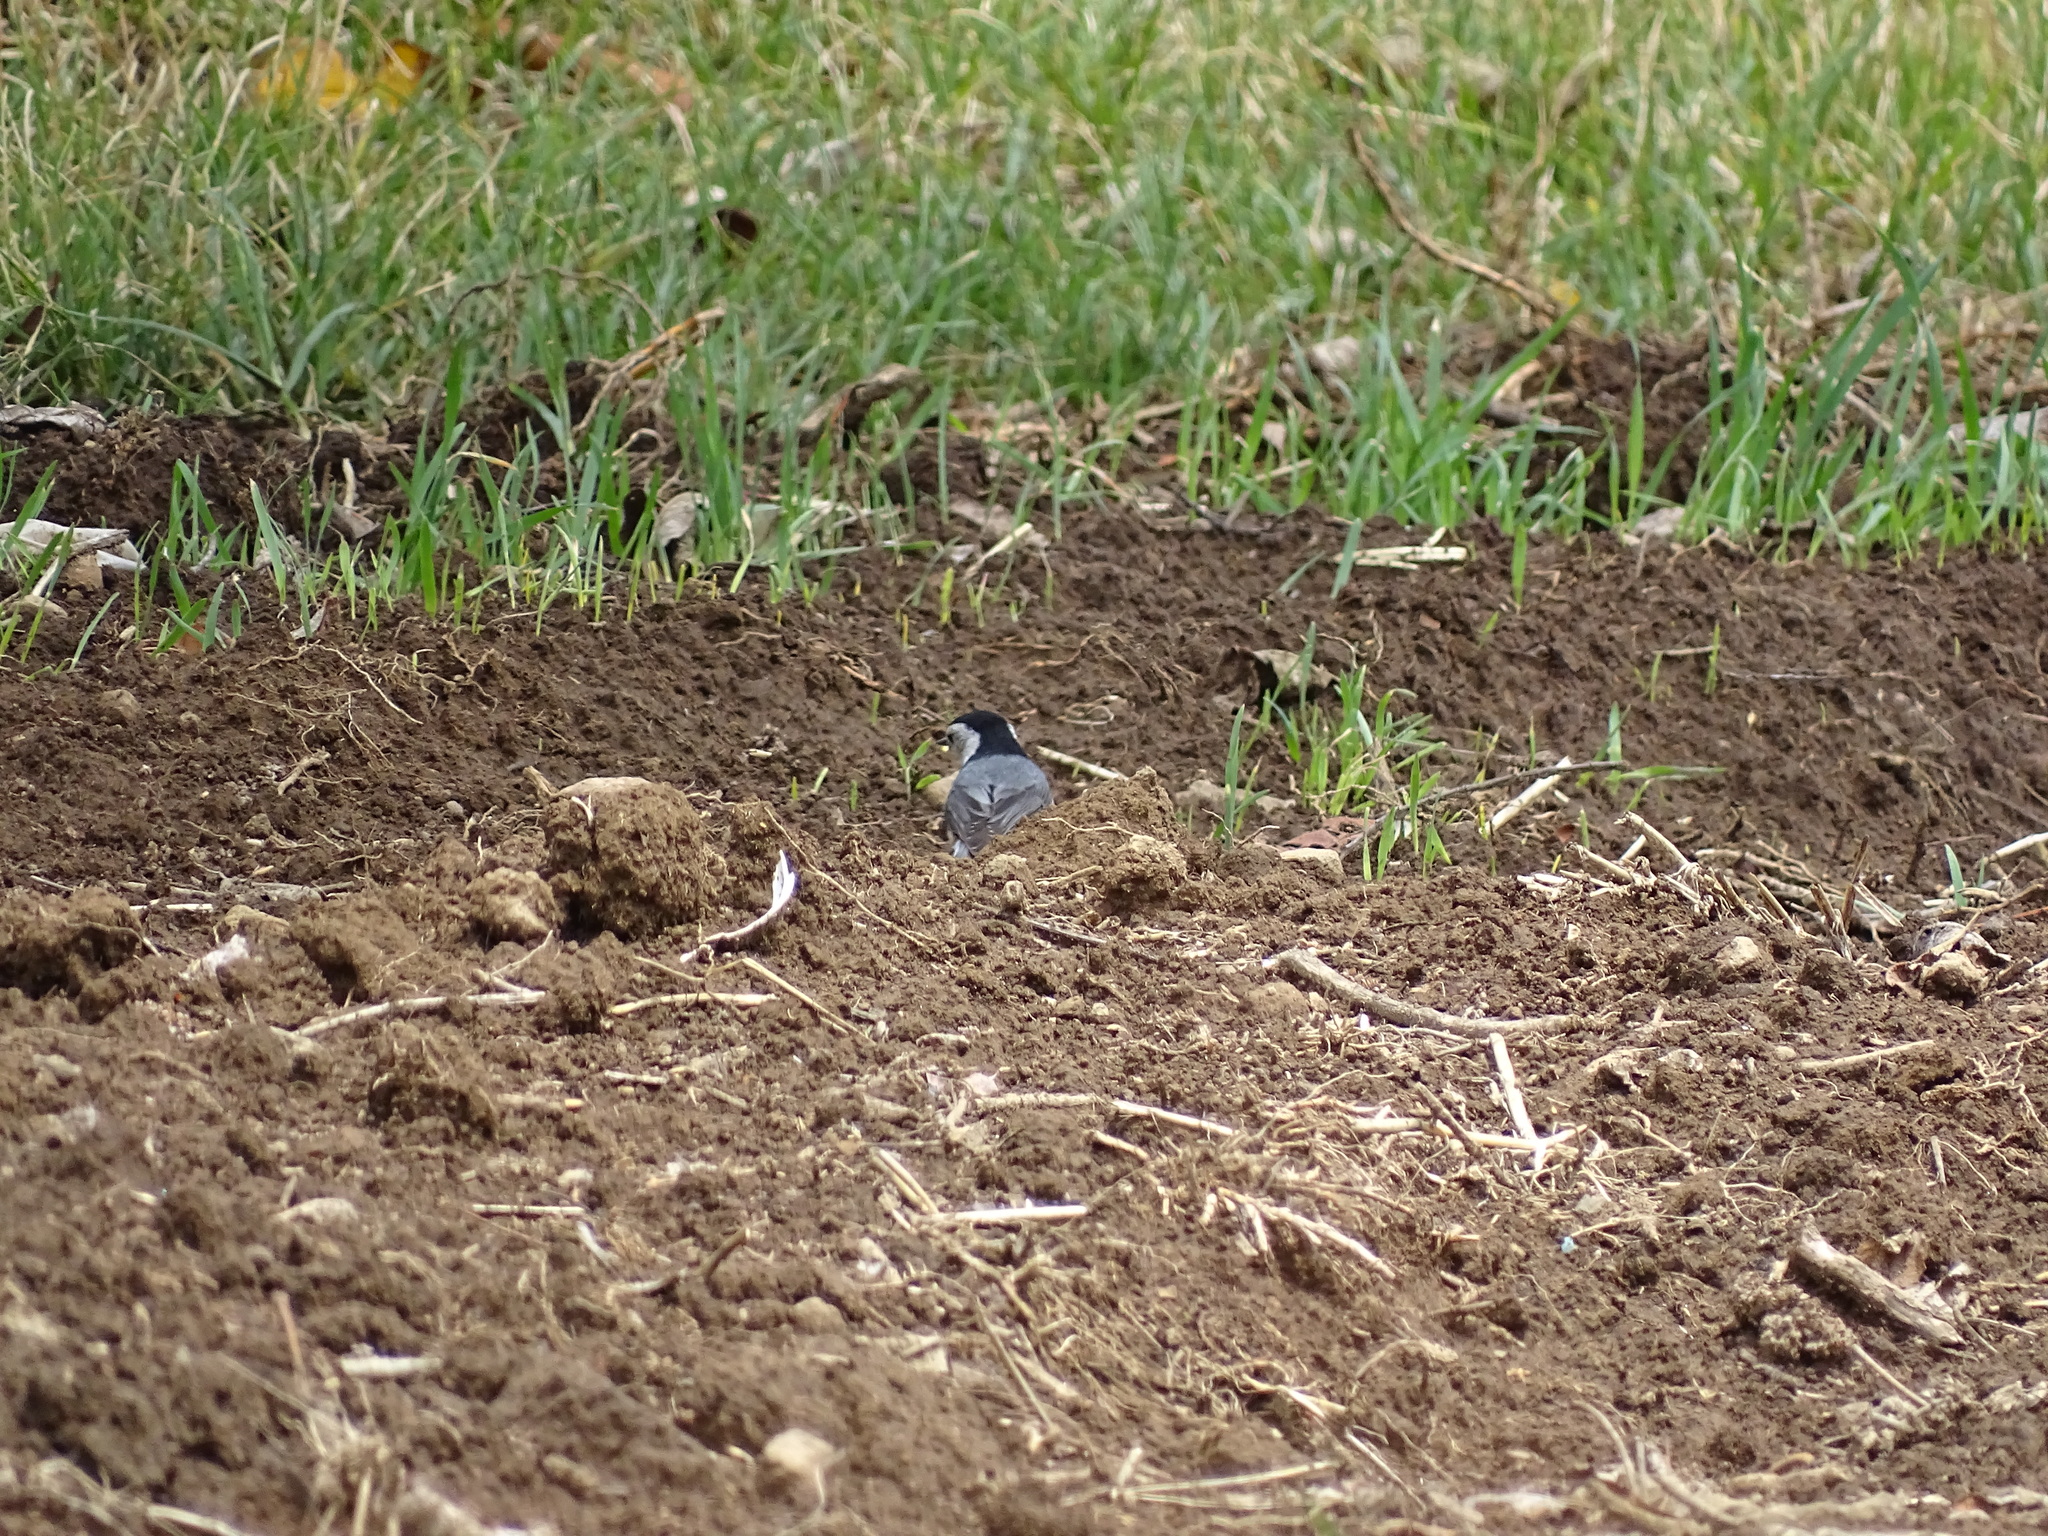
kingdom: Animalia
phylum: Chordata
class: Aves
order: Passeriformes
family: Sittidae
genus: Sitta
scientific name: Sitta carolinensis
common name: White-breasted nuthatch
